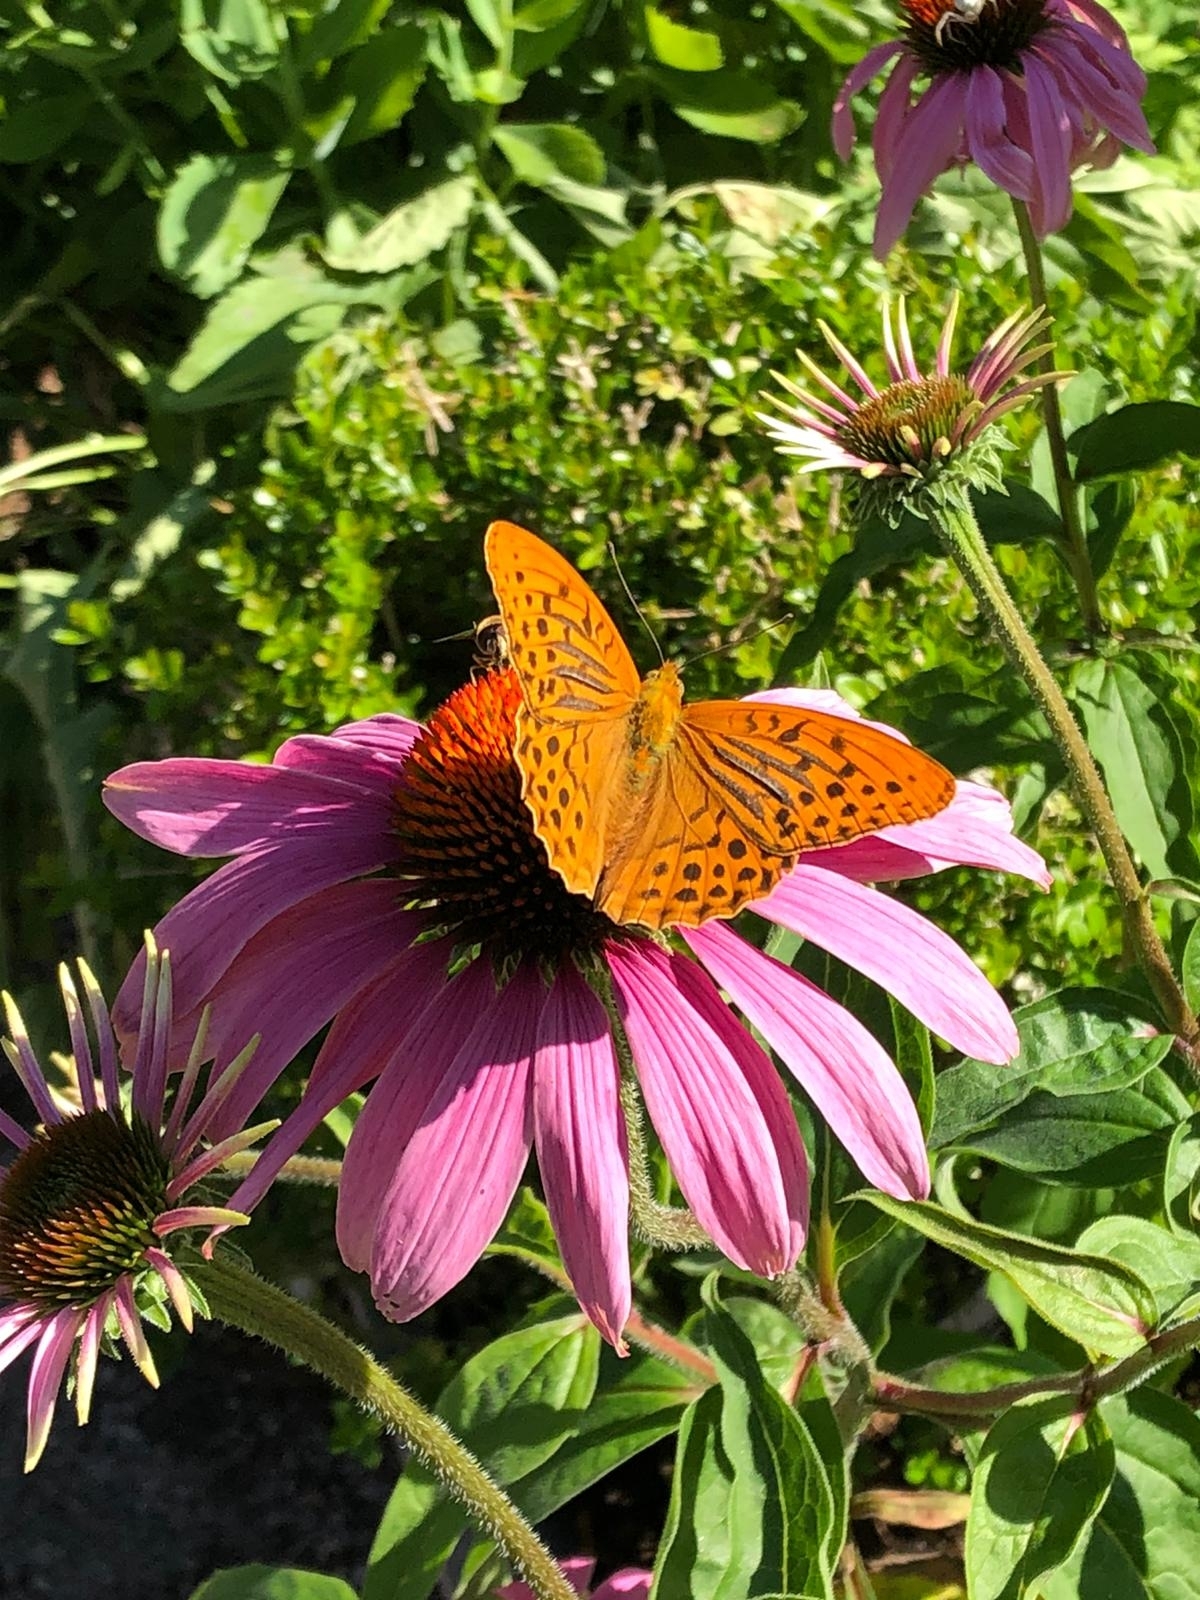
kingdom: Animalia
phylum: Arthropoda
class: Insecta
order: Lepidoptera
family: Nymphalidae
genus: Argynnis
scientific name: Argynnis paphia
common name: Silver-washed fritillary
